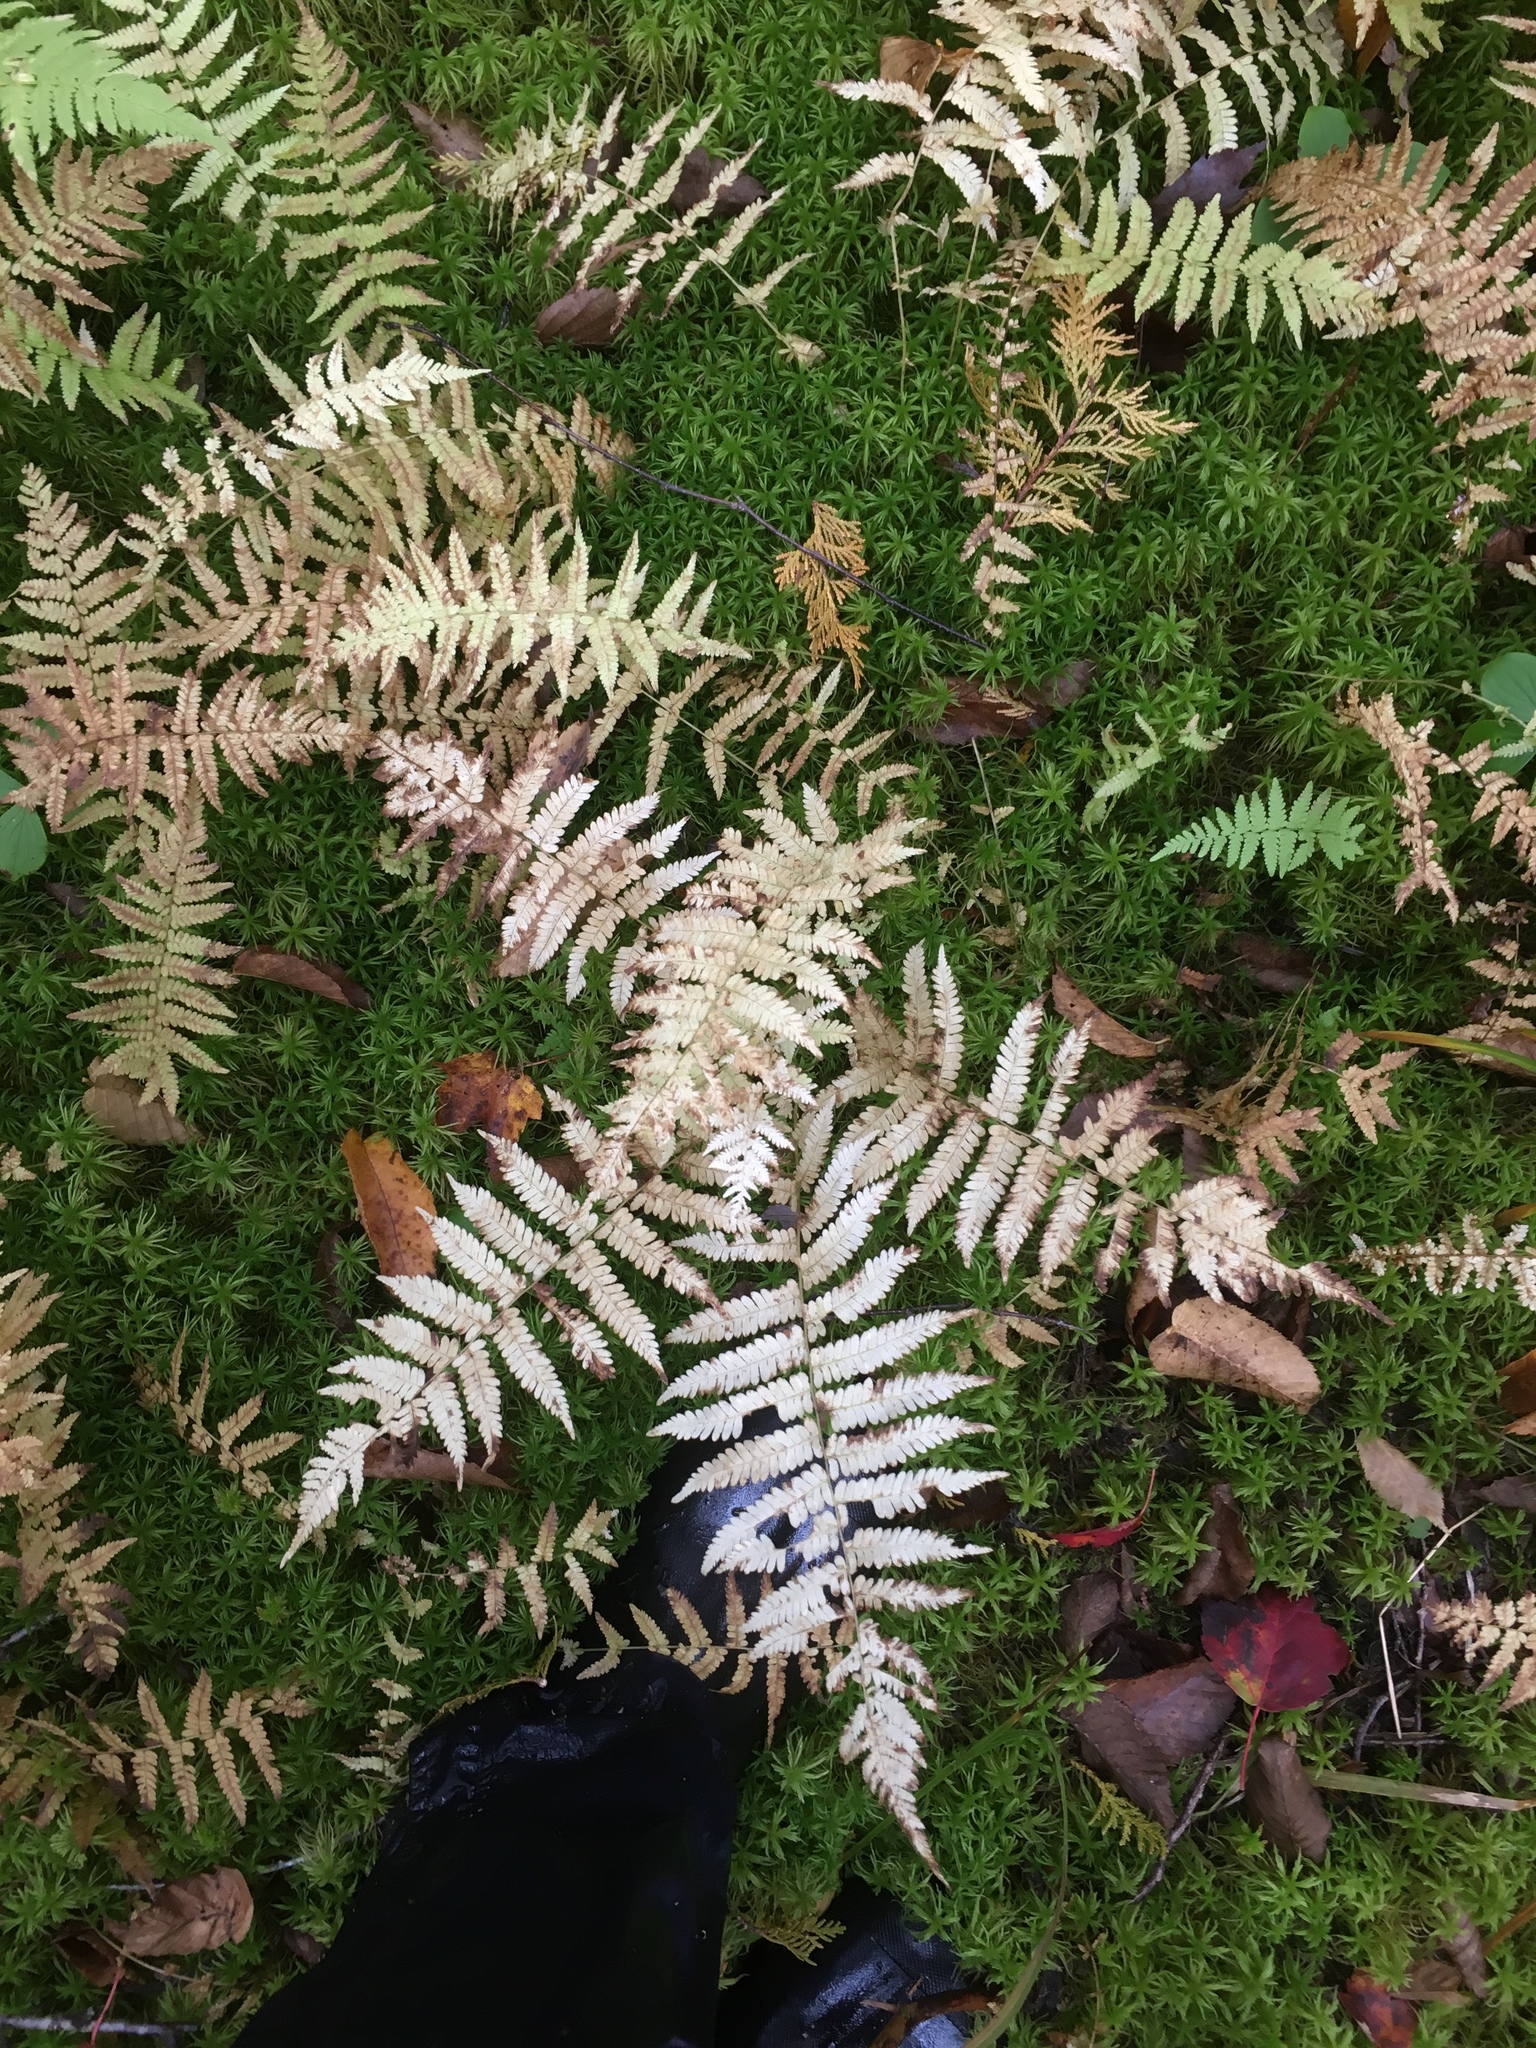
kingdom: Plantae
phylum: Tracheophyta
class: Polypodiopsida
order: Polypodiales
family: Thelypteridaceae
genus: Amauropelta
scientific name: Amauropelta noveboracensis
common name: New york fern
